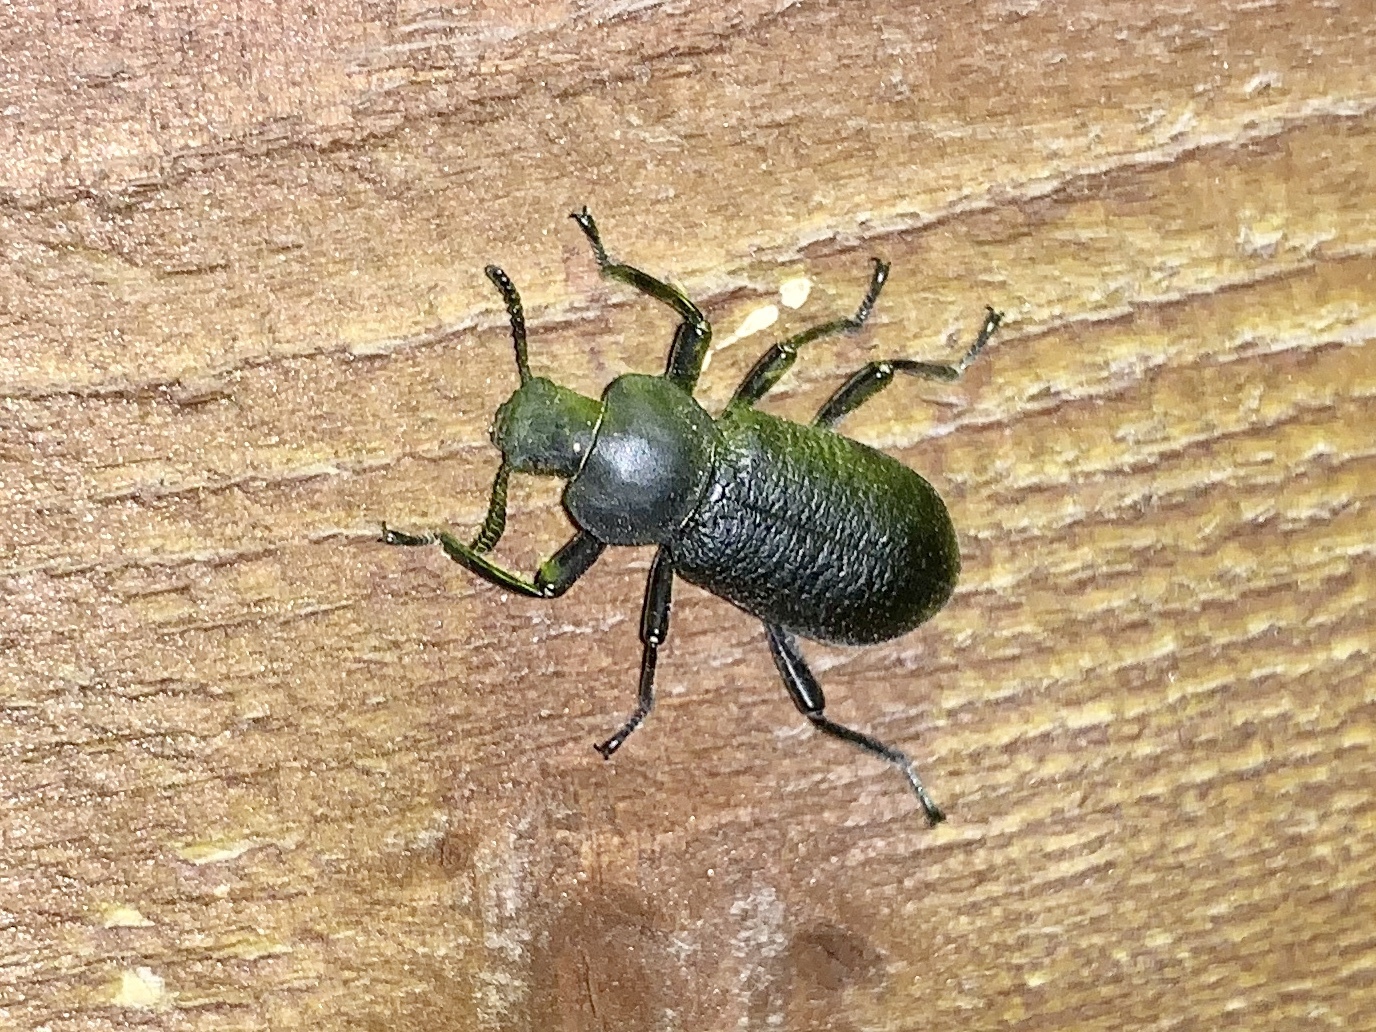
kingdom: Animalia
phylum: Arthropoda
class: Insecta
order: Coleoptera
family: Tenebrionidae
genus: Iphthiminus
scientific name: Iphthiminus lewisii
